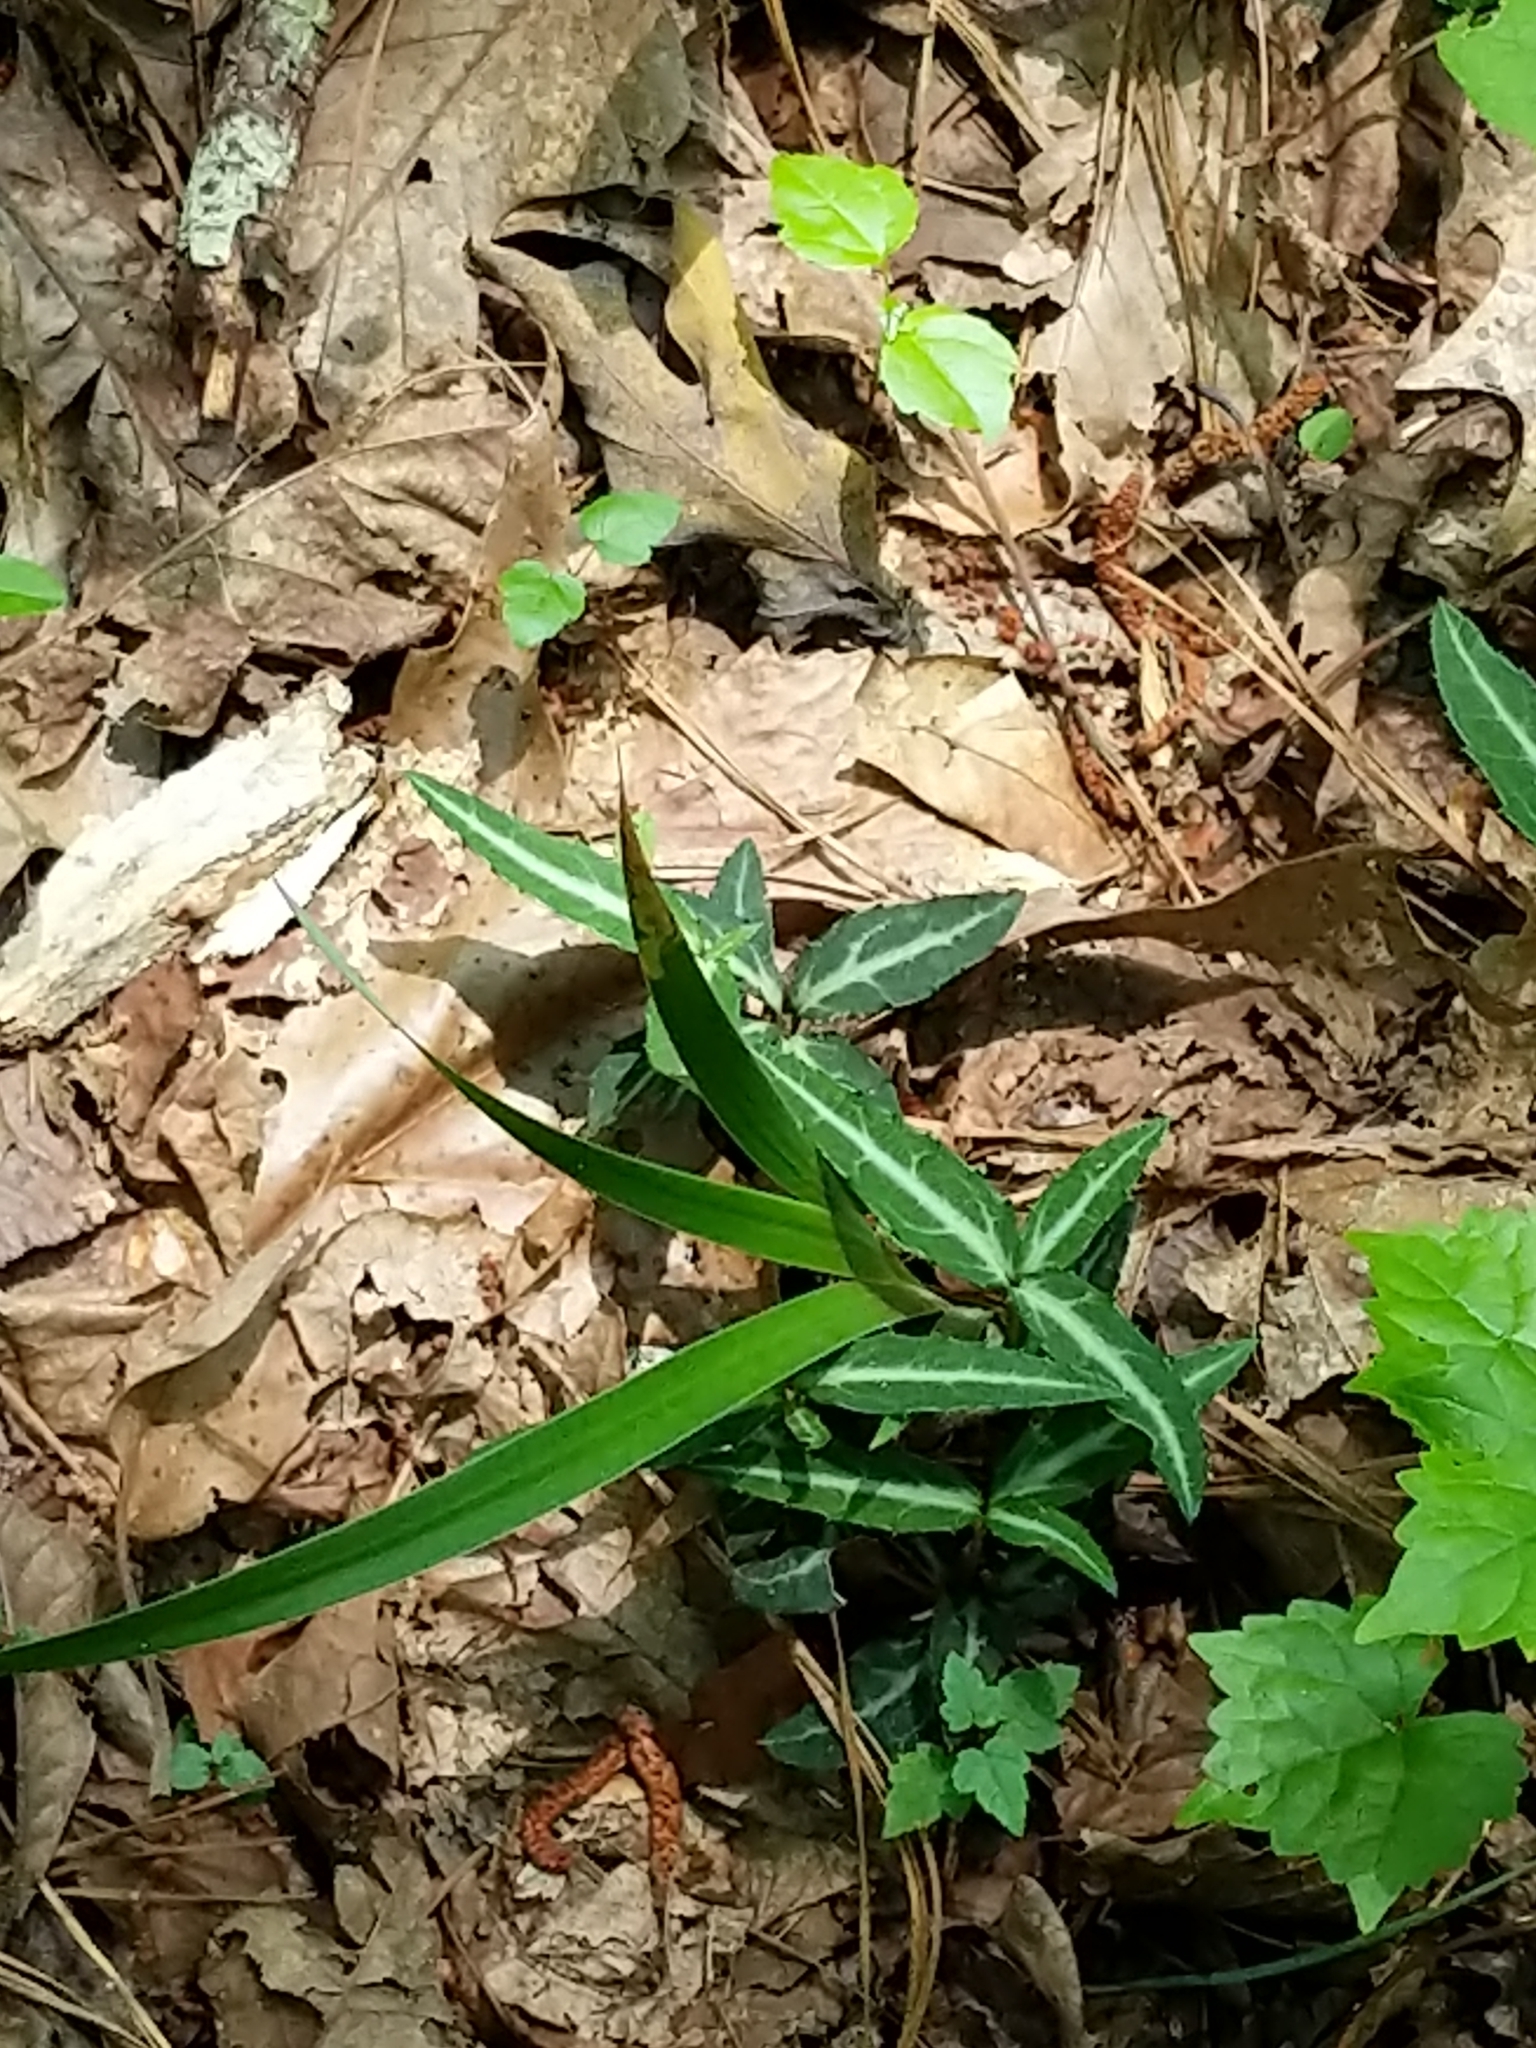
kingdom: Plantae
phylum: Tracheophyta
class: Magnoliopsida
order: Ericales
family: Ericaceae
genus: Chimaphila
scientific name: Chimaphila maculata
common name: Spotted pipsissewa
